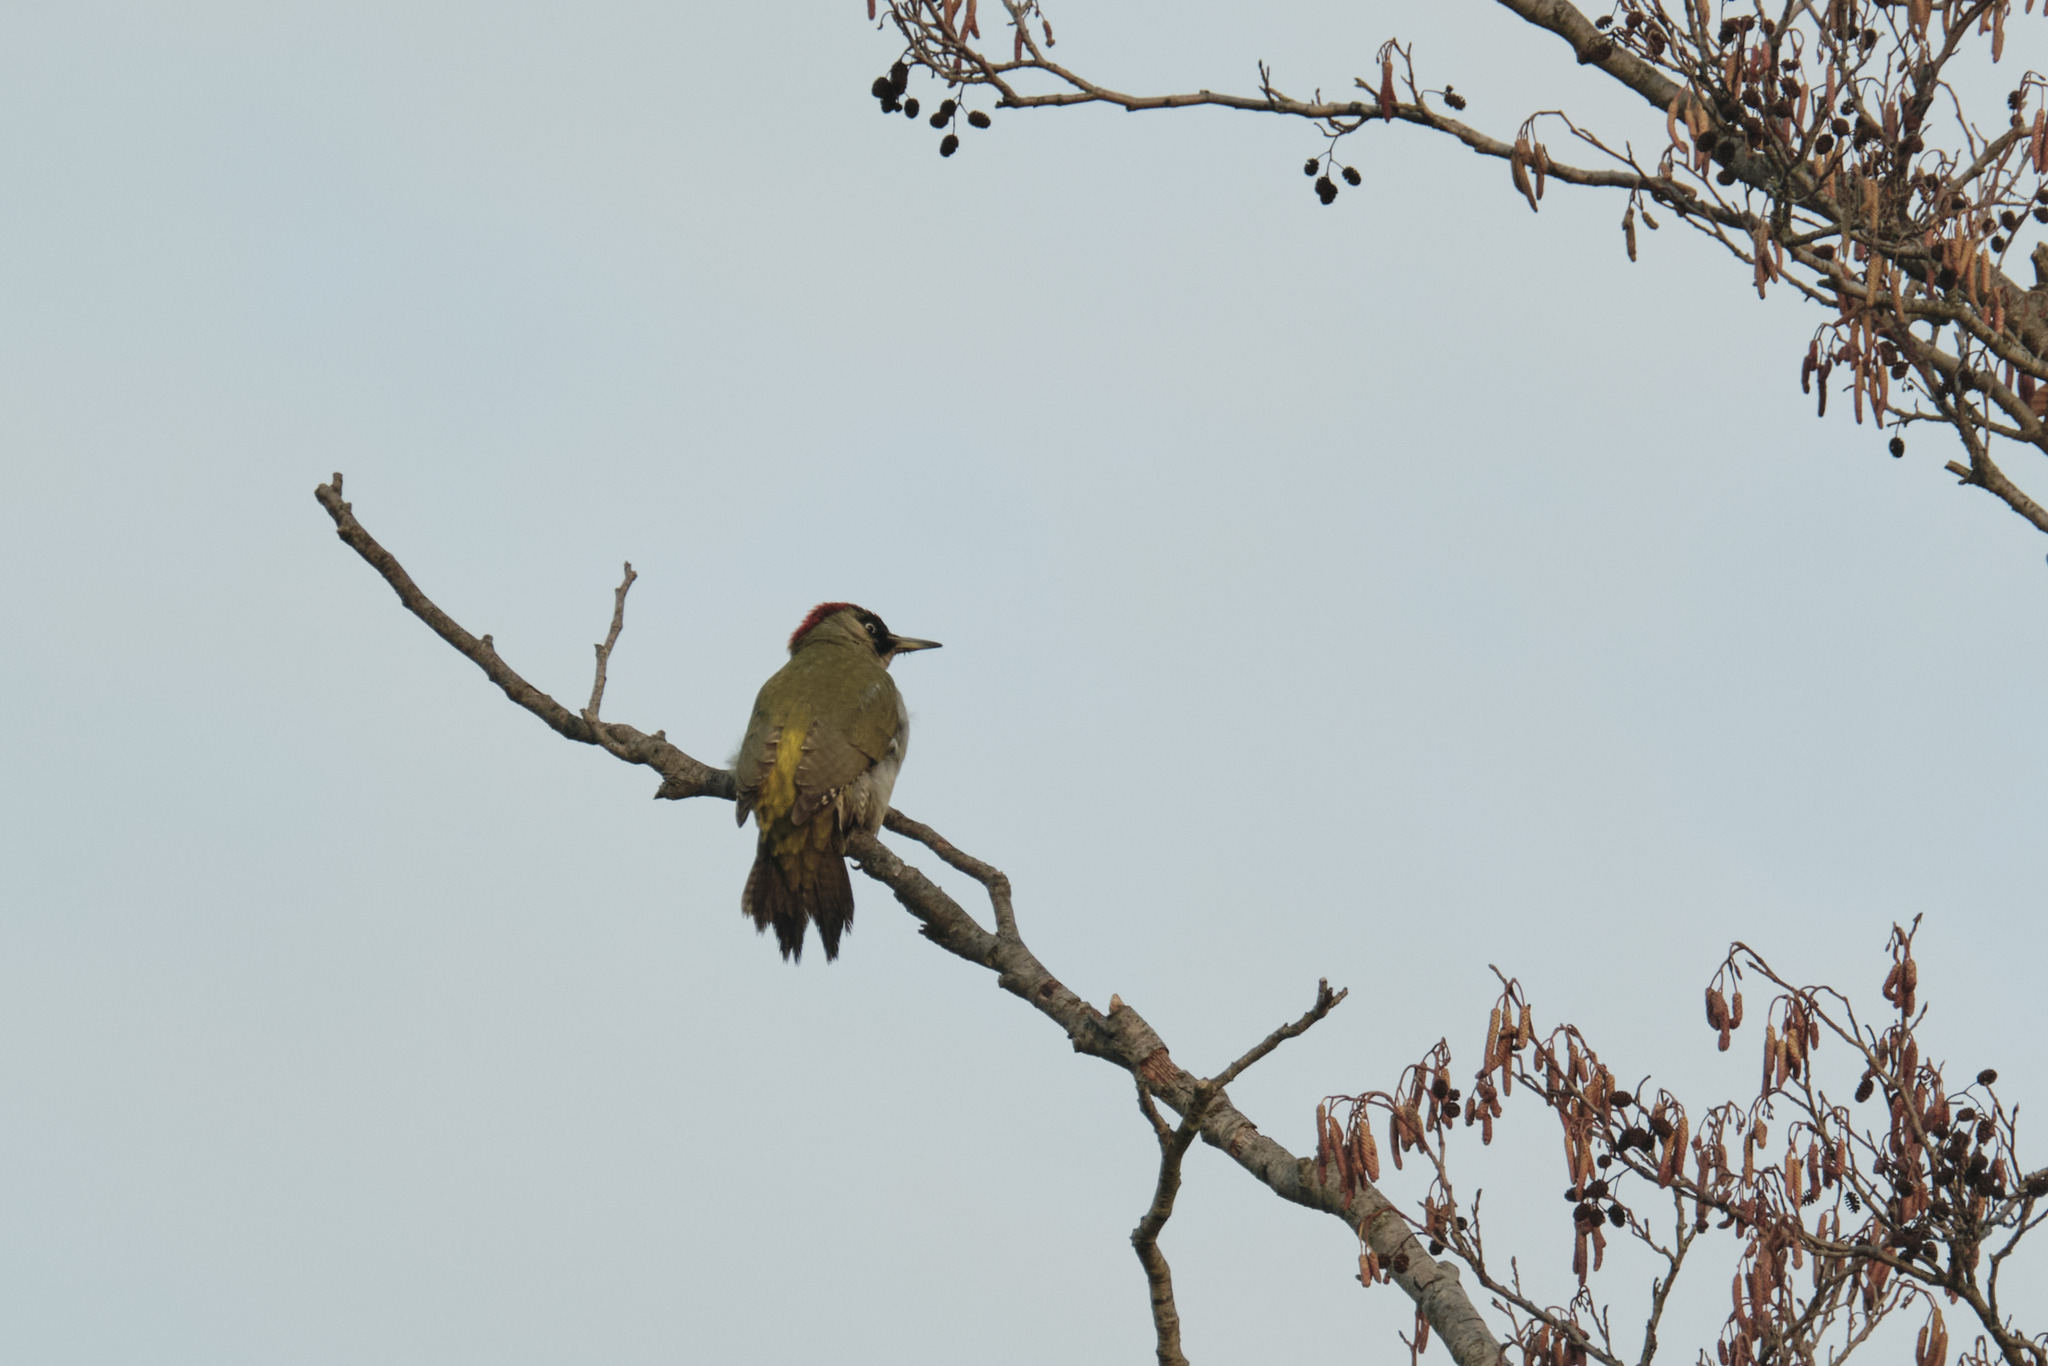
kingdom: Animalia
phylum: Chordata
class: Aves
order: Piciformes
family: Picidae
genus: Picus
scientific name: Picus viridis
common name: European green woodpecker
